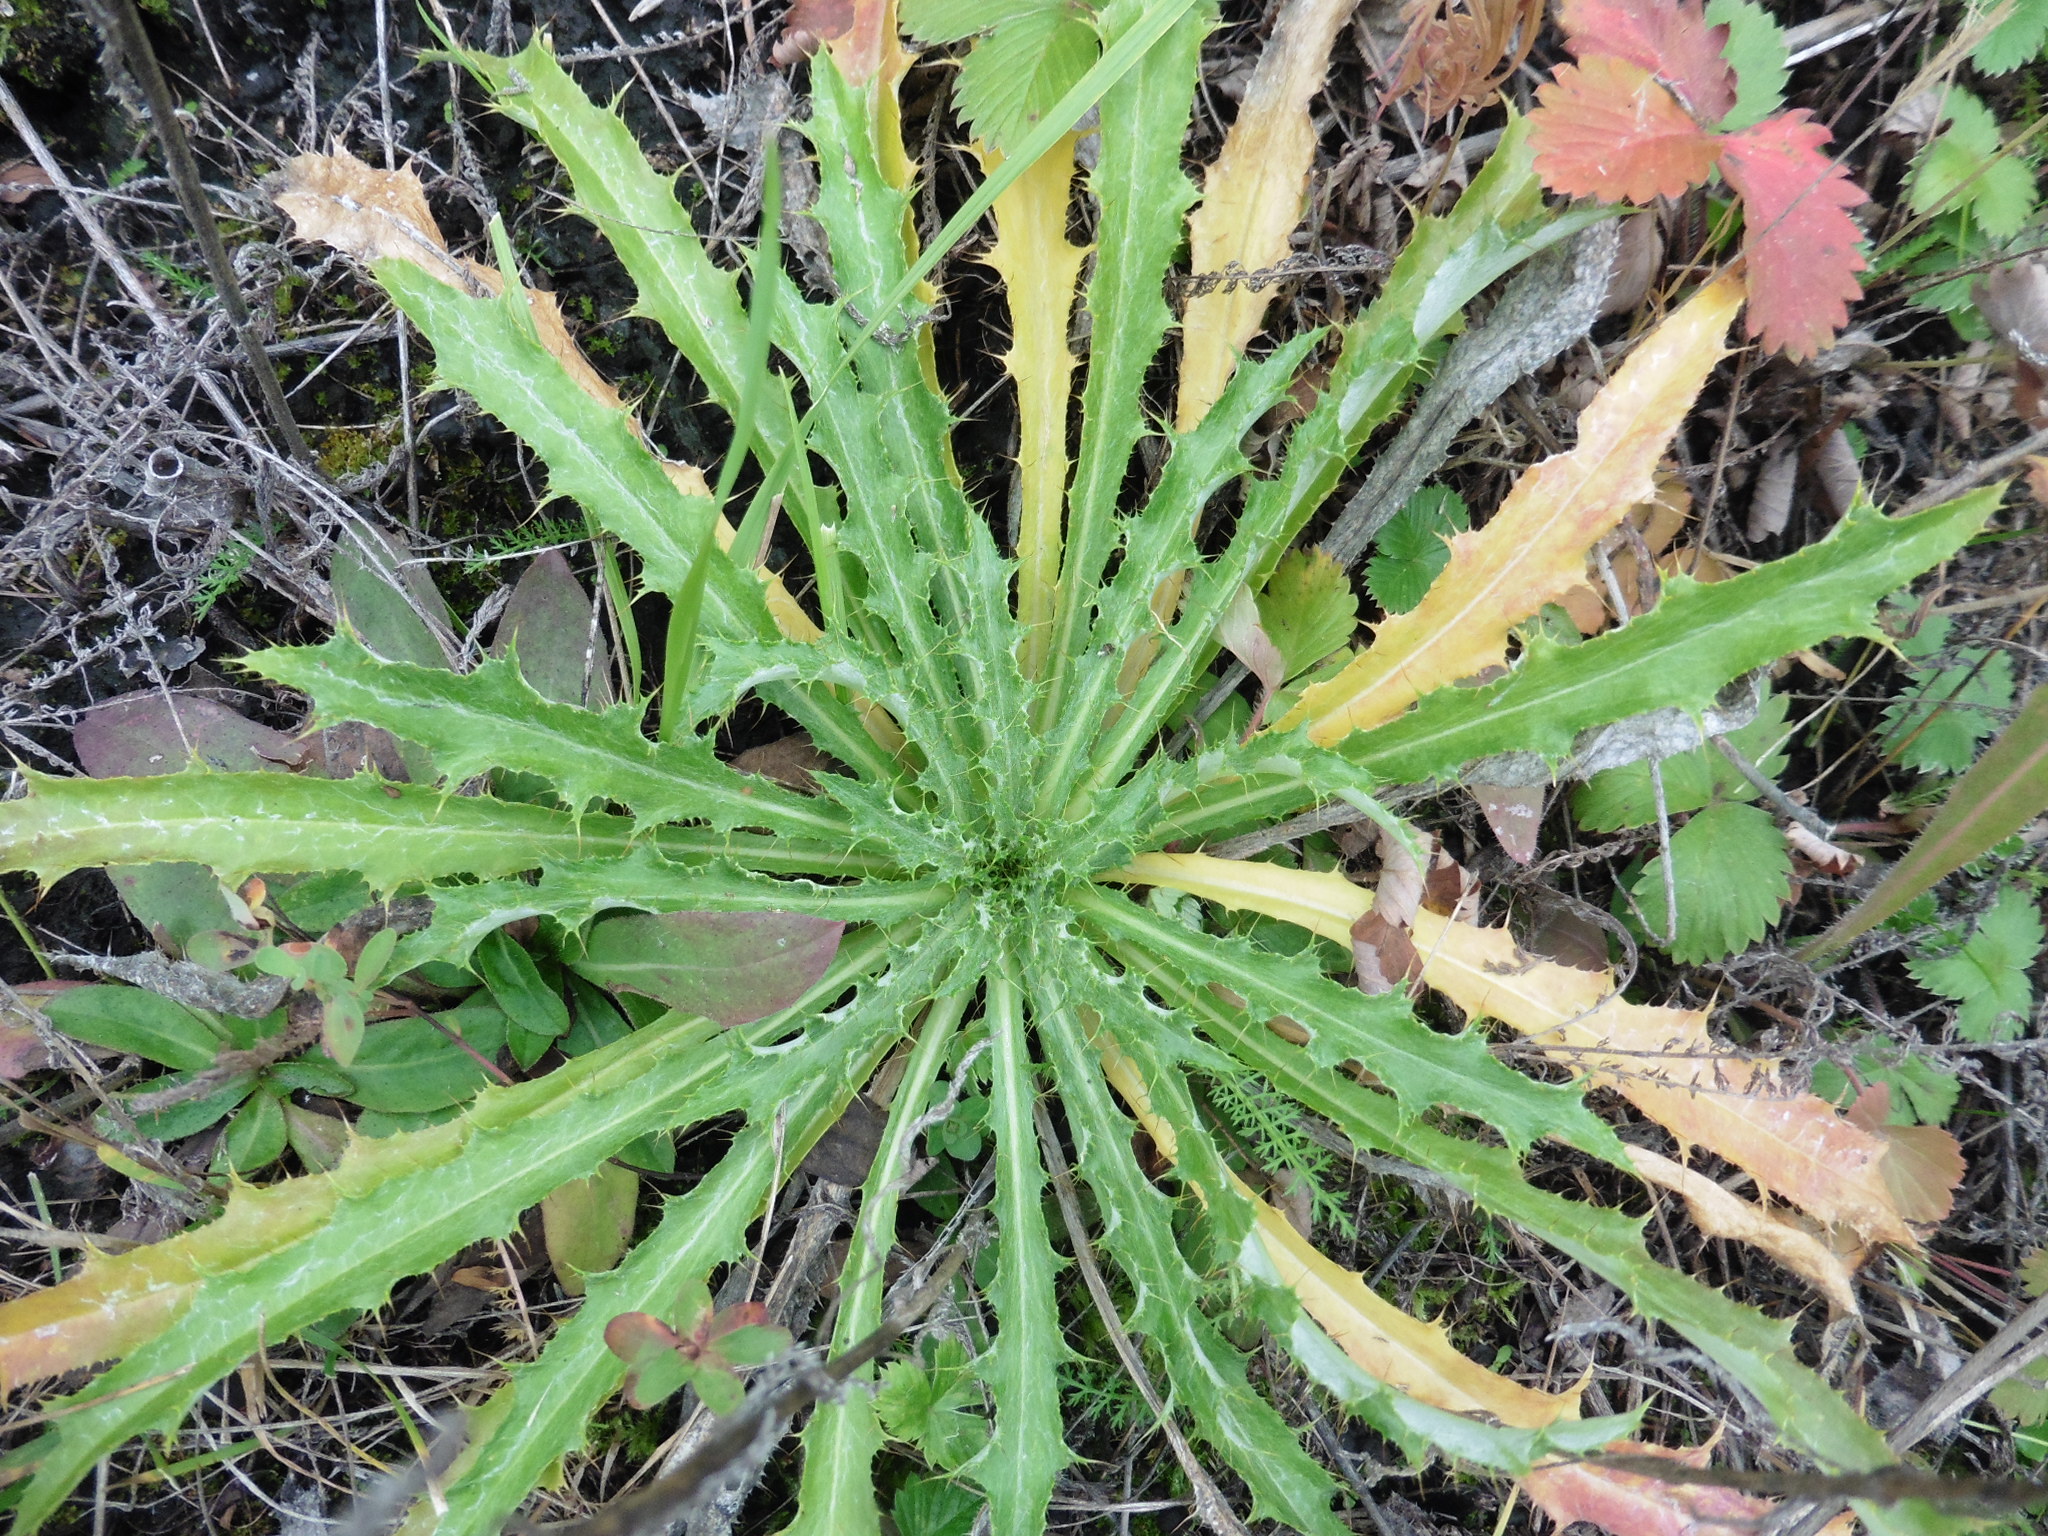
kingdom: Plantae
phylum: Tracheophyta
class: Magnoliopsida
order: Asterales
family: Asteraceae
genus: Carlina
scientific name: Carlina biebersteinii
